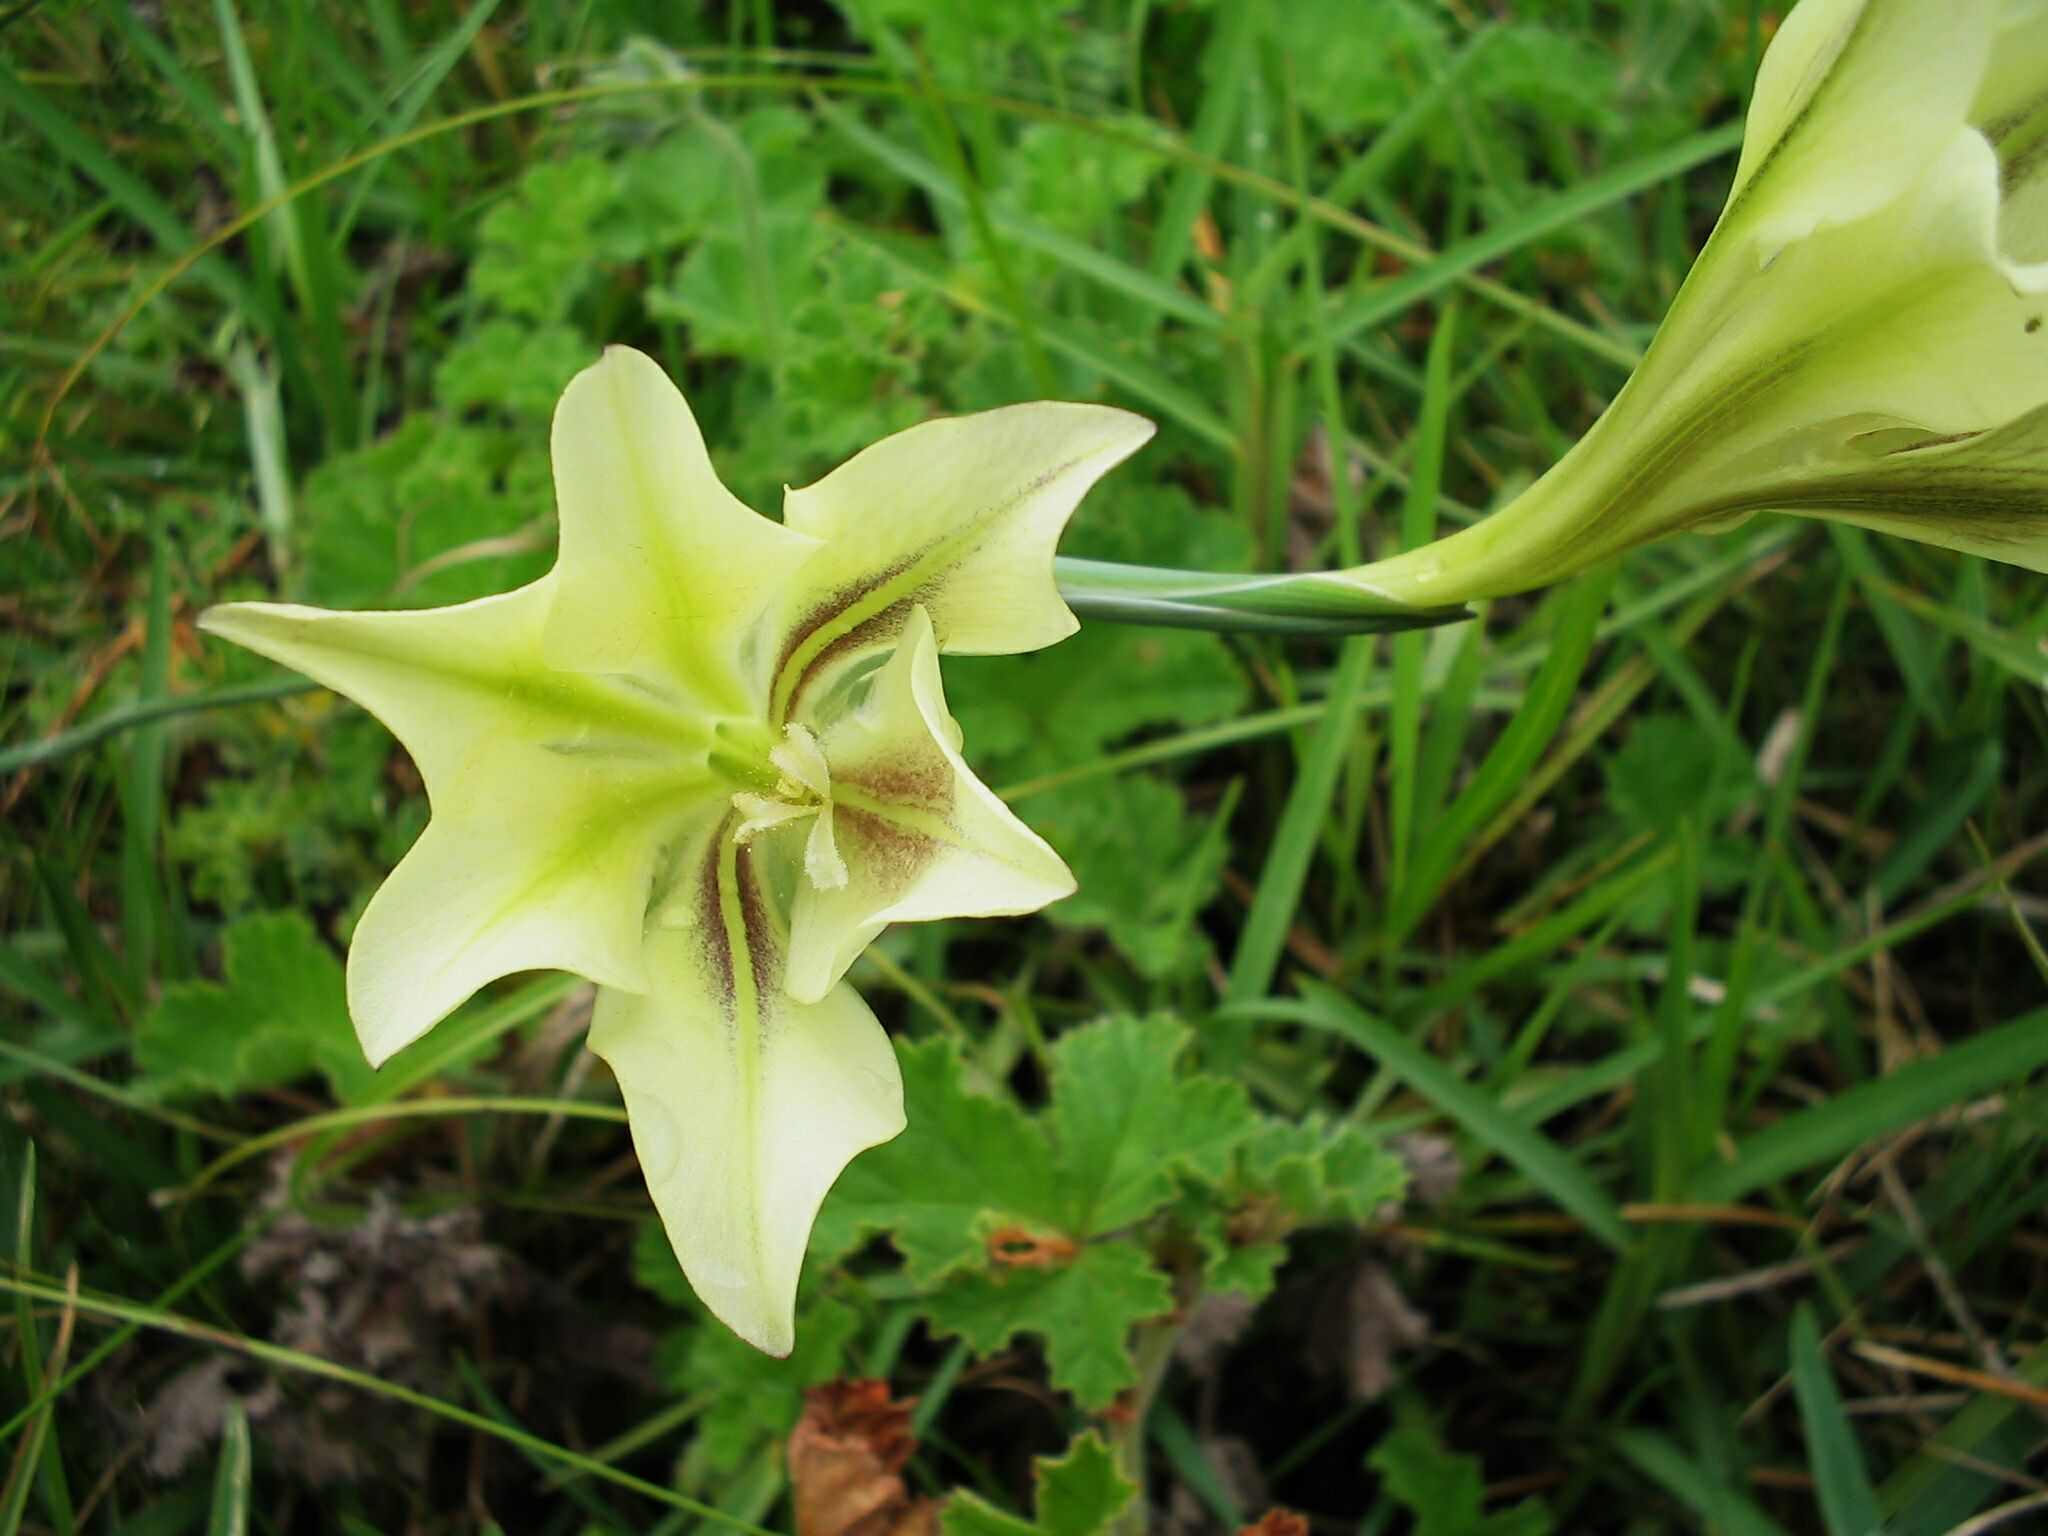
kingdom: Plantae
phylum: Tracheophyta
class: Liliopsida
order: Asparagales
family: Iridaceae
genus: Gladiolus
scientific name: Gladiolus tristis
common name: Ever-flowering gladiolus
